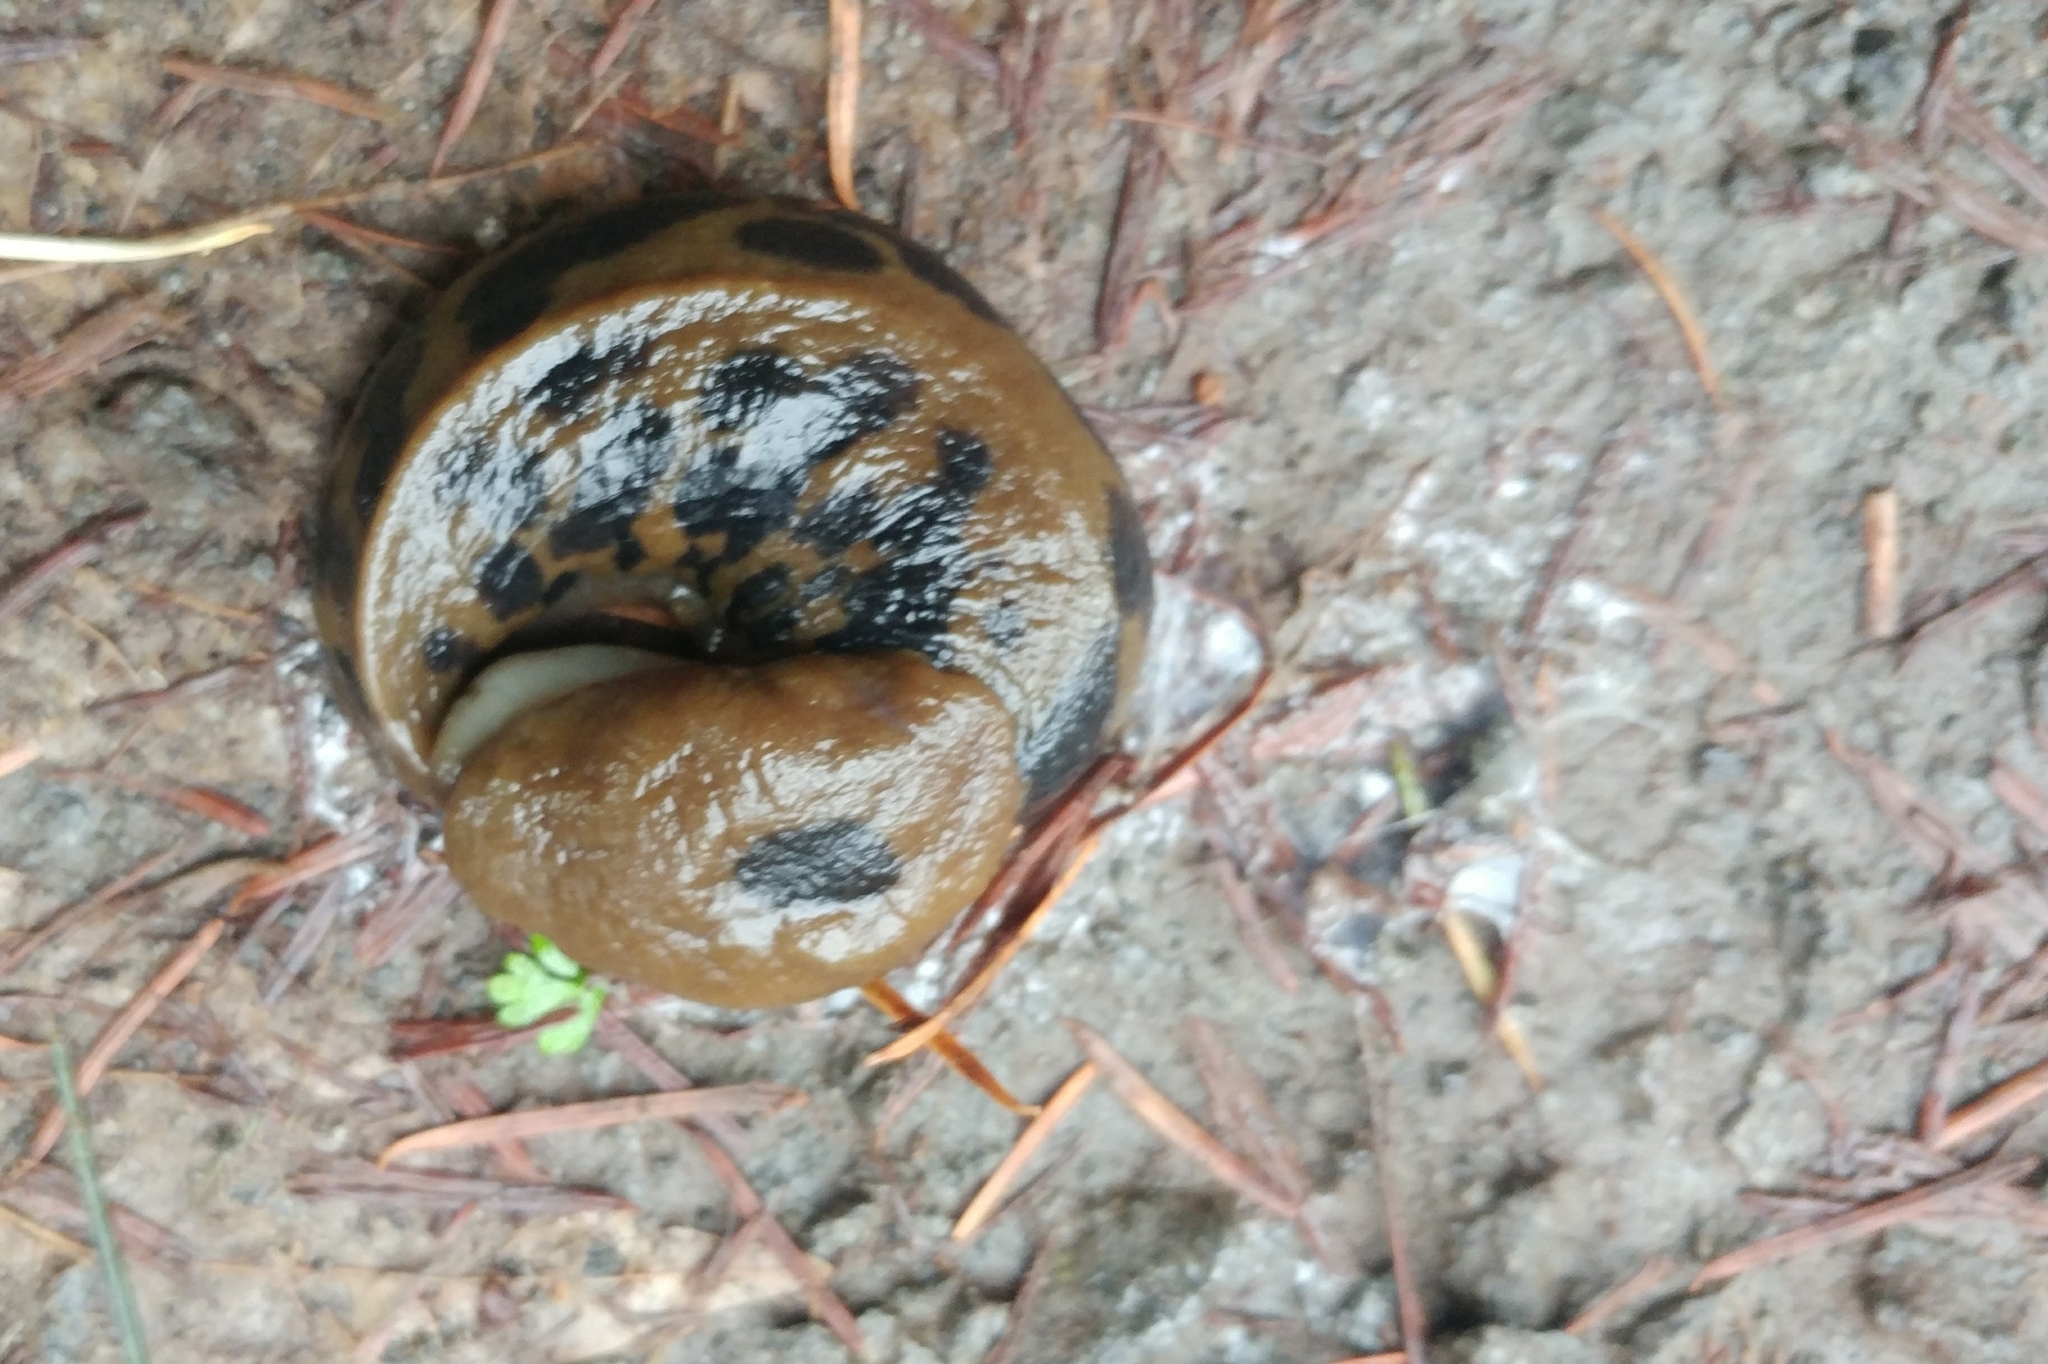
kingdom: Animalia
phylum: Mollusca
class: Gastropoda
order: Stylommatophora
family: Ariolimacidae
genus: Ariolimax
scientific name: Ariolimax columbianus
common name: Pacific banana slug
